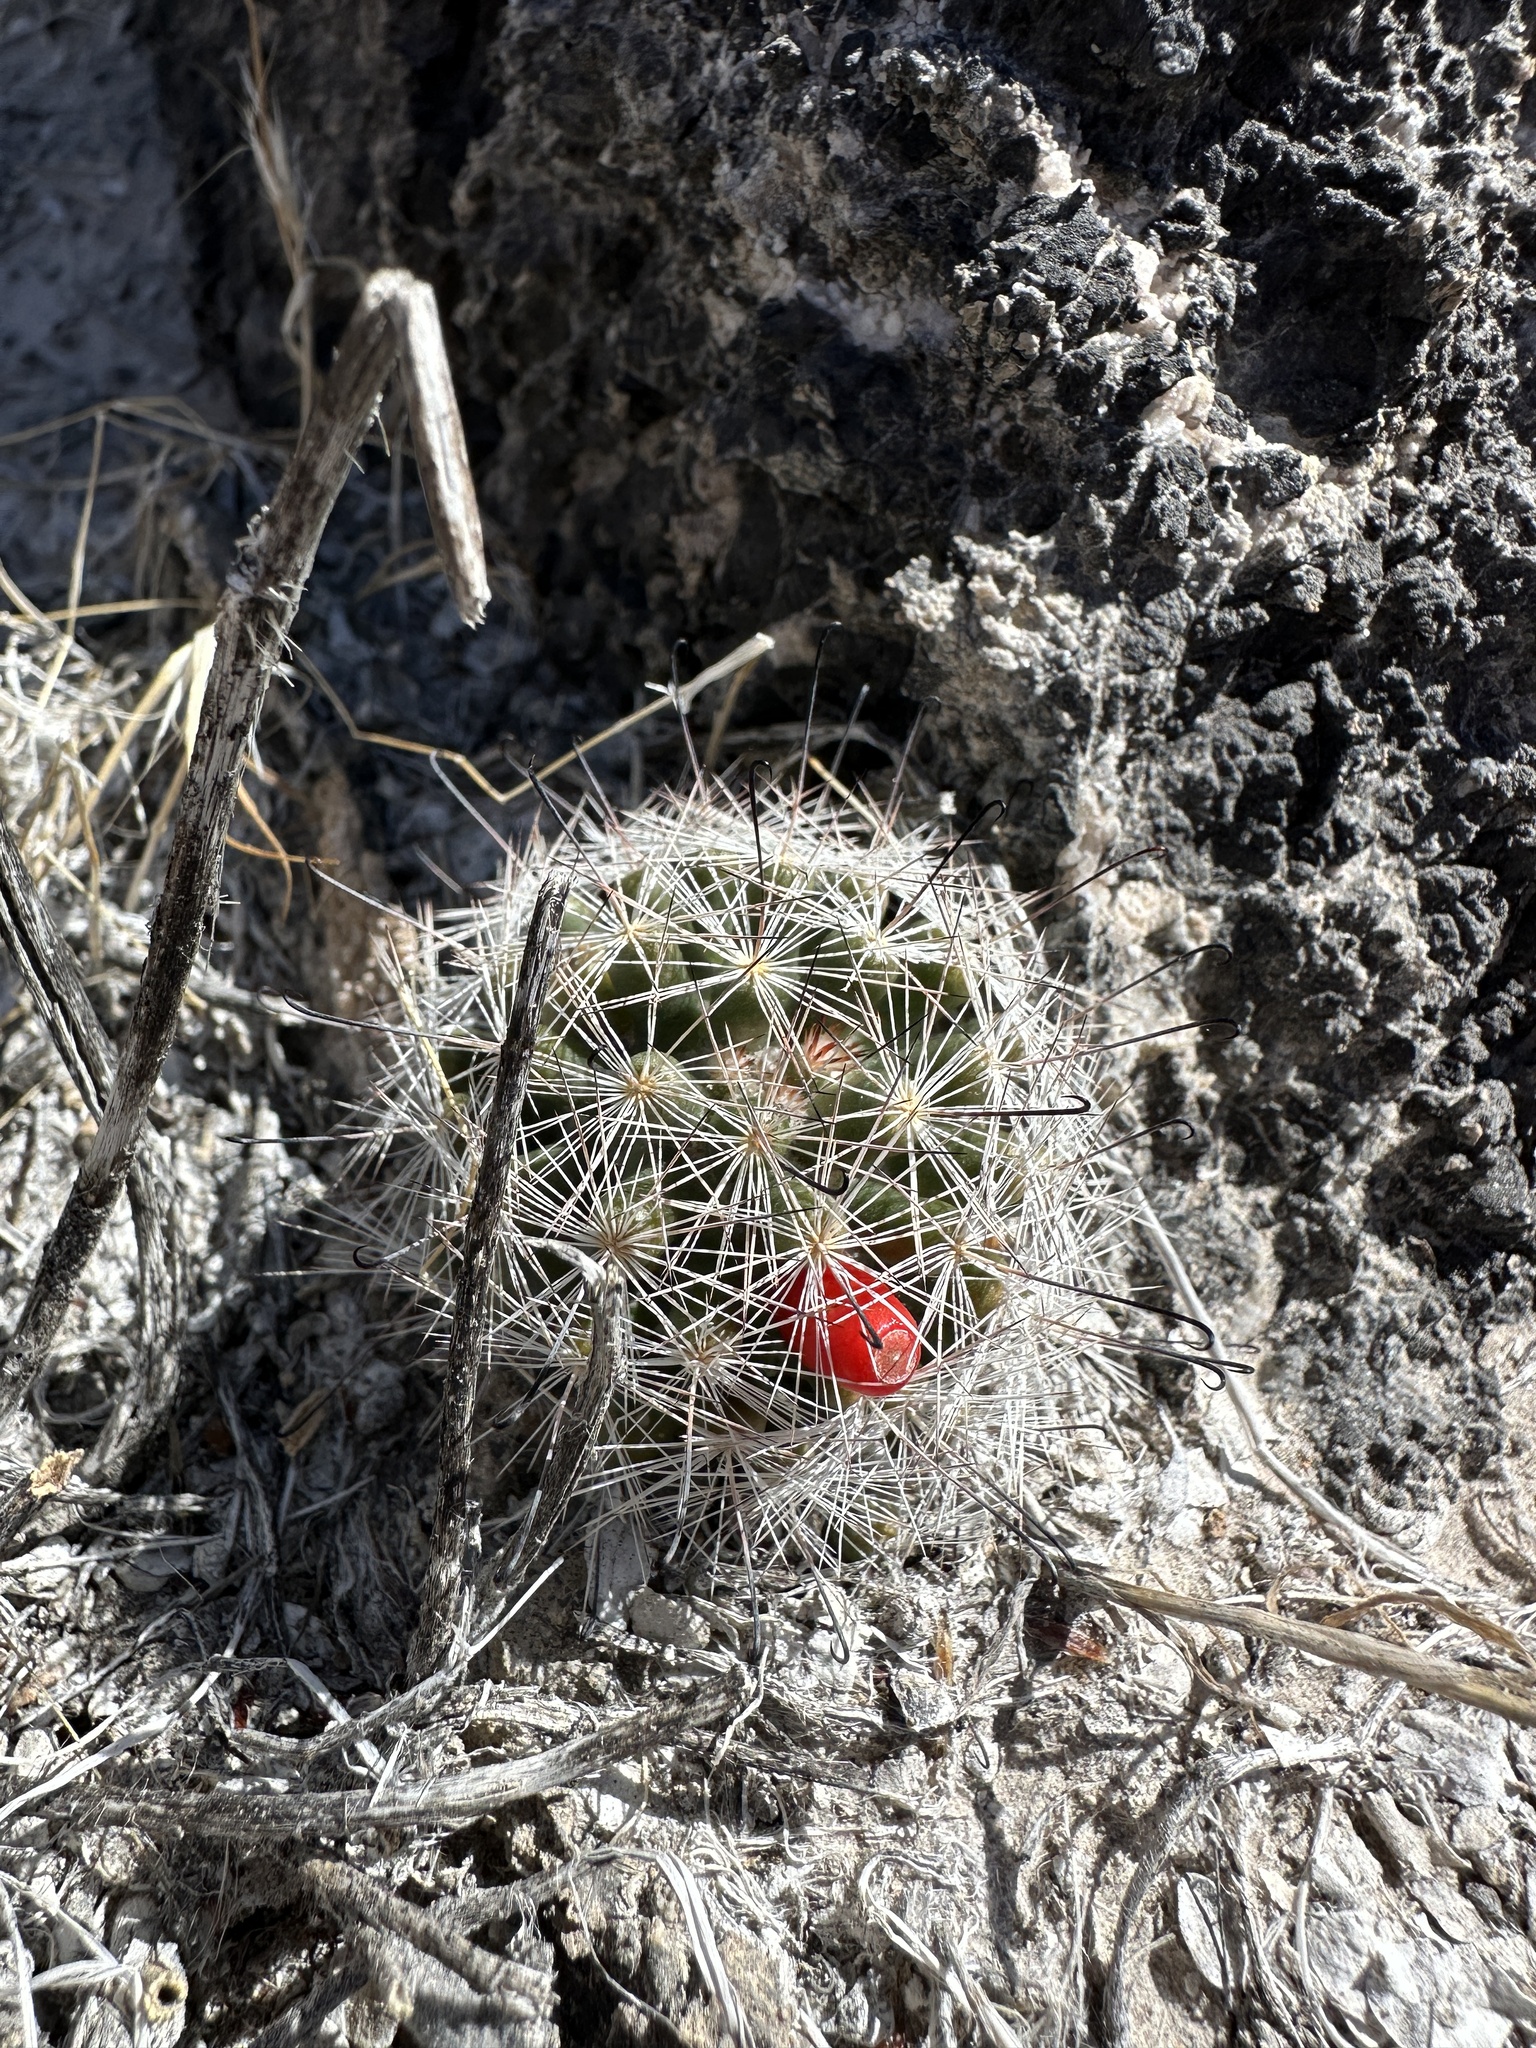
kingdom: Plantae
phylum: Tracheophyta
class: Magnoliopsida
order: Caryophyllales
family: Cactaceae
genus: Cochemiea
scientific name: Cochemiea tetrancistra
